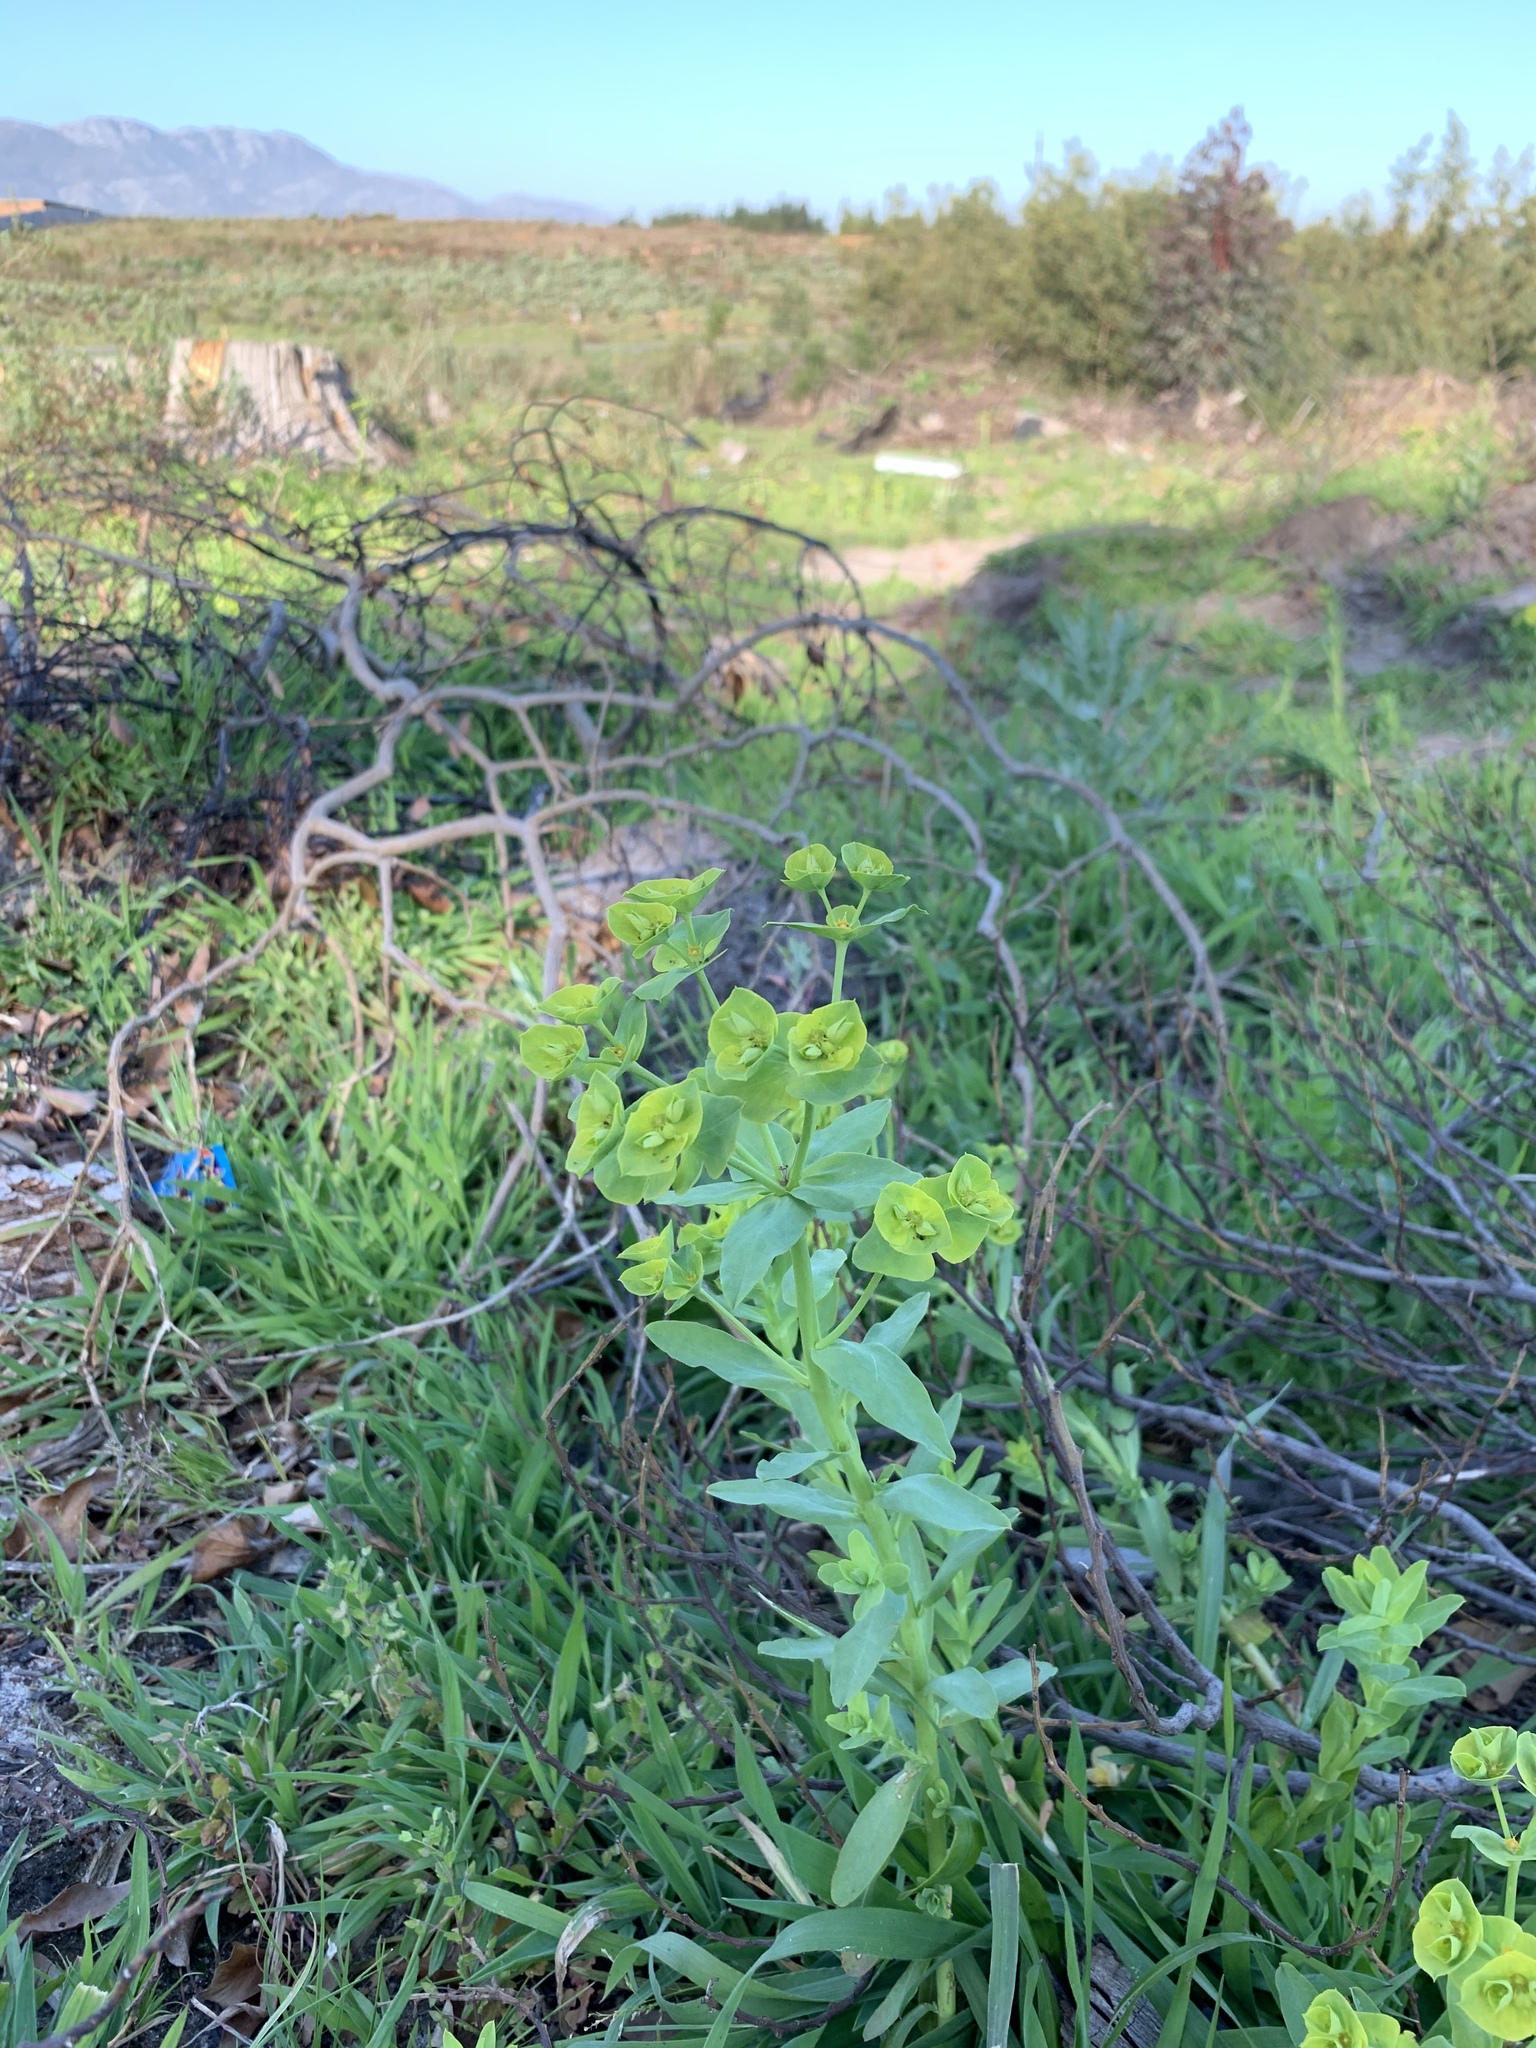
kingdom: Plantae
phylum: Tracheophyta
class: Magnoliopsida
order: Malpighiales
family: Euphorbiaceae
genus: Euphorbia
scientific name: Euphorbia terracina
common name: Geraldton carnation weed
